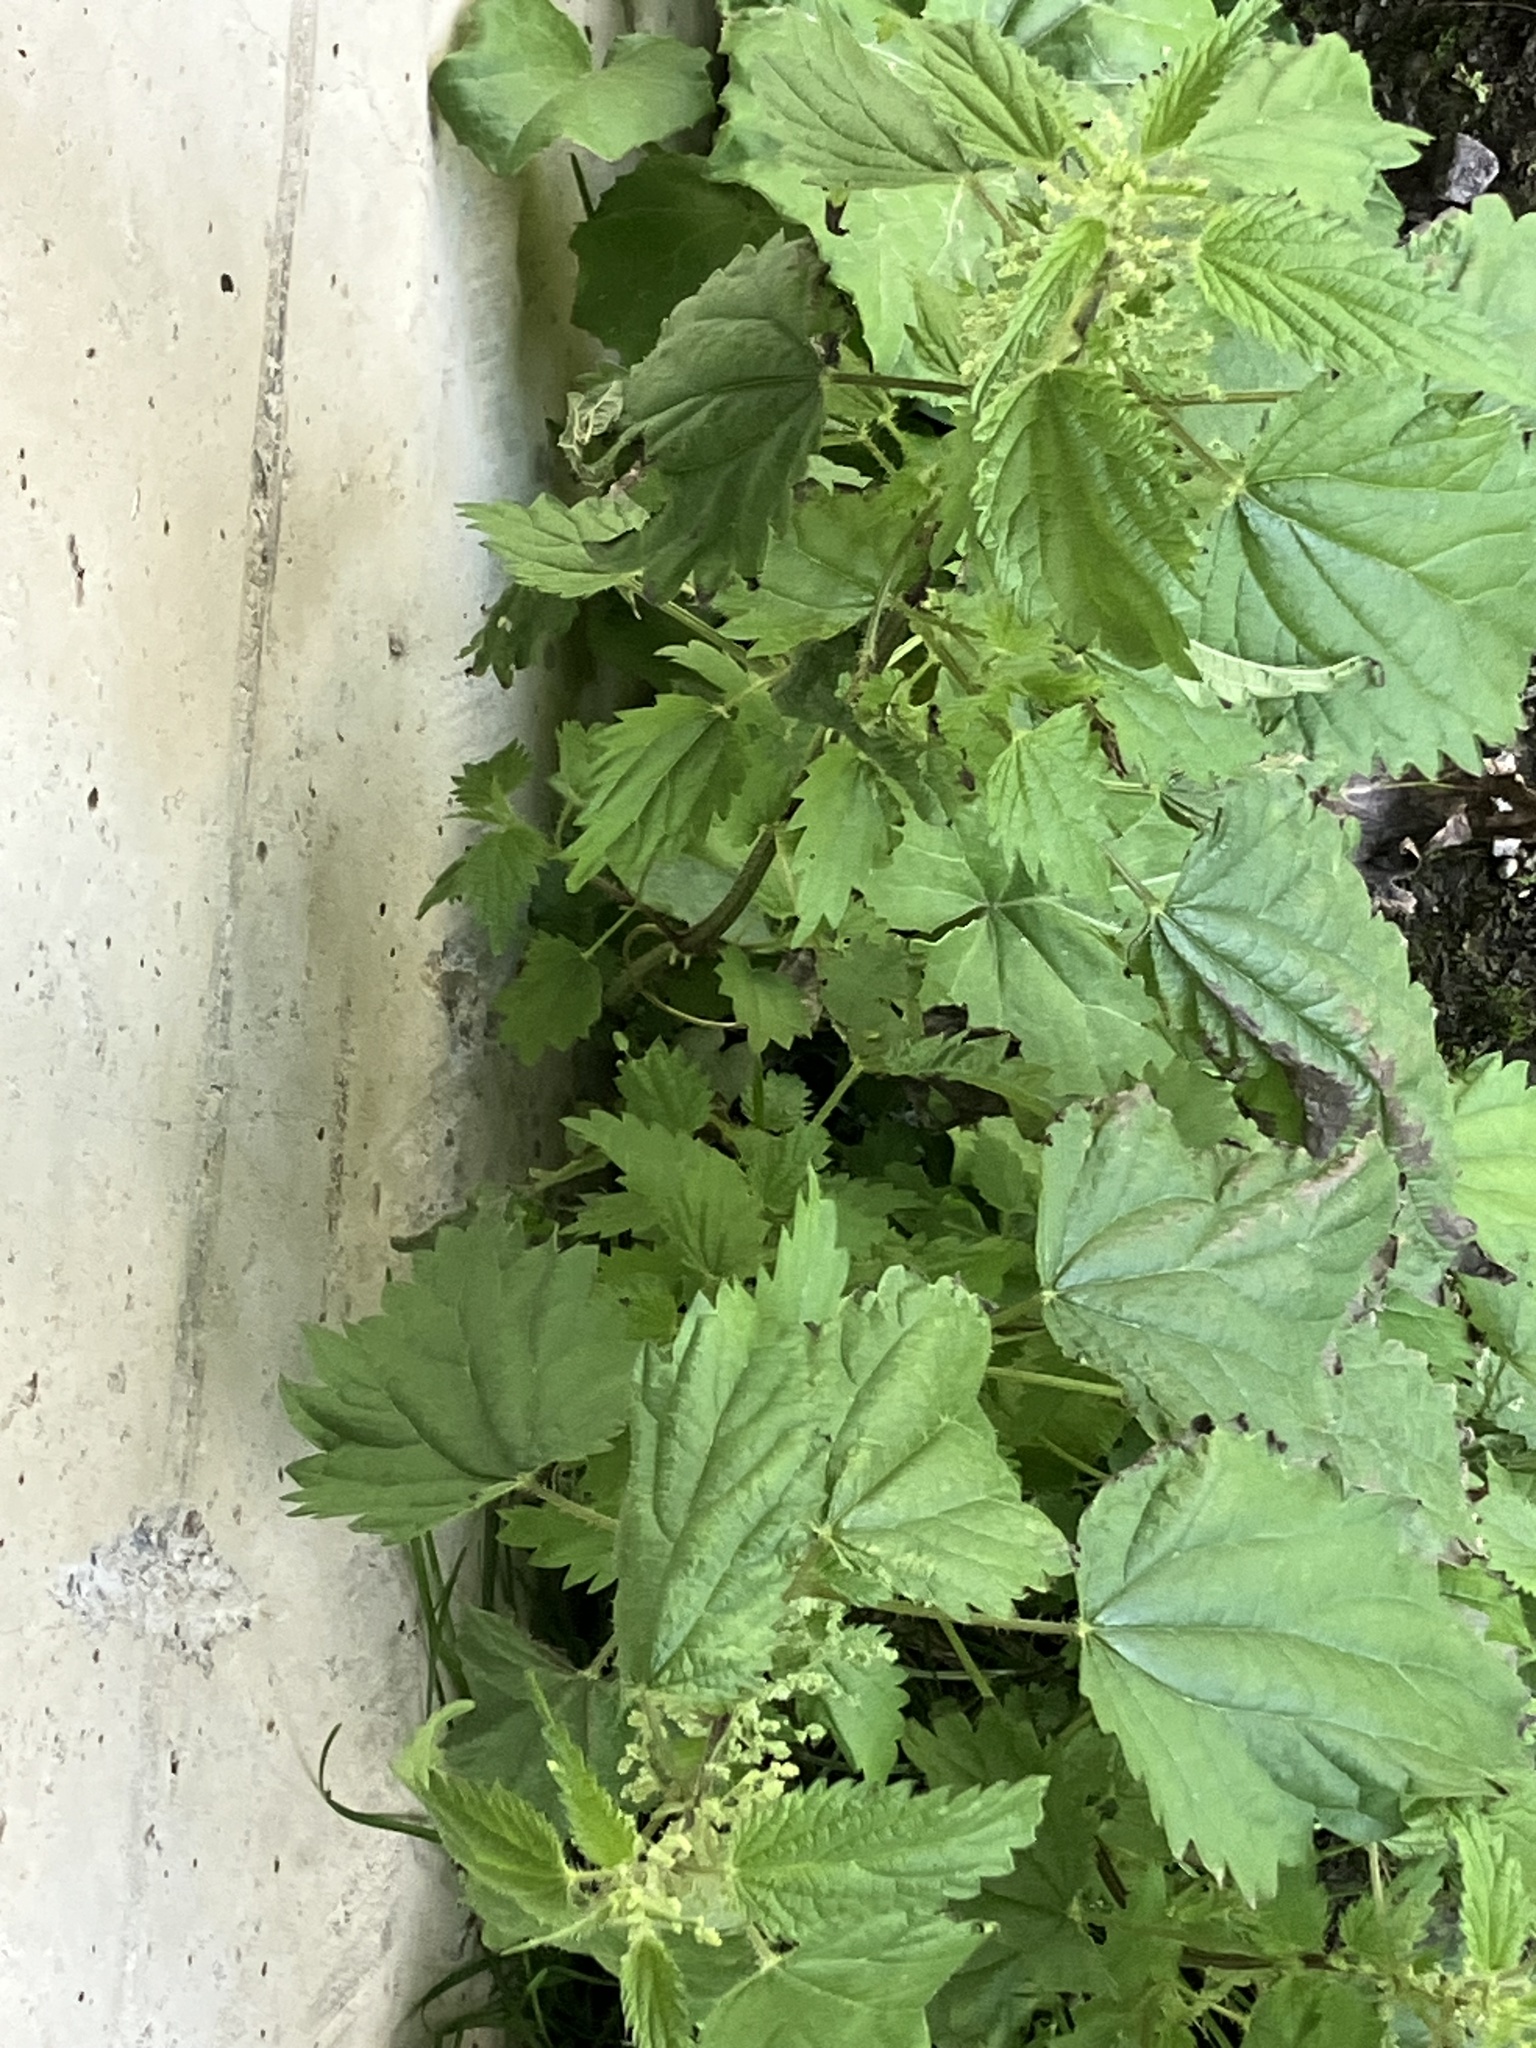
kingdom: Plantae
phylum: Tracheophyta
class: Magnoliopsida
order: Rosales
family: Urticaceae
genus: Urtica
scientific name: Urtica dioica
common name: Common nettle
